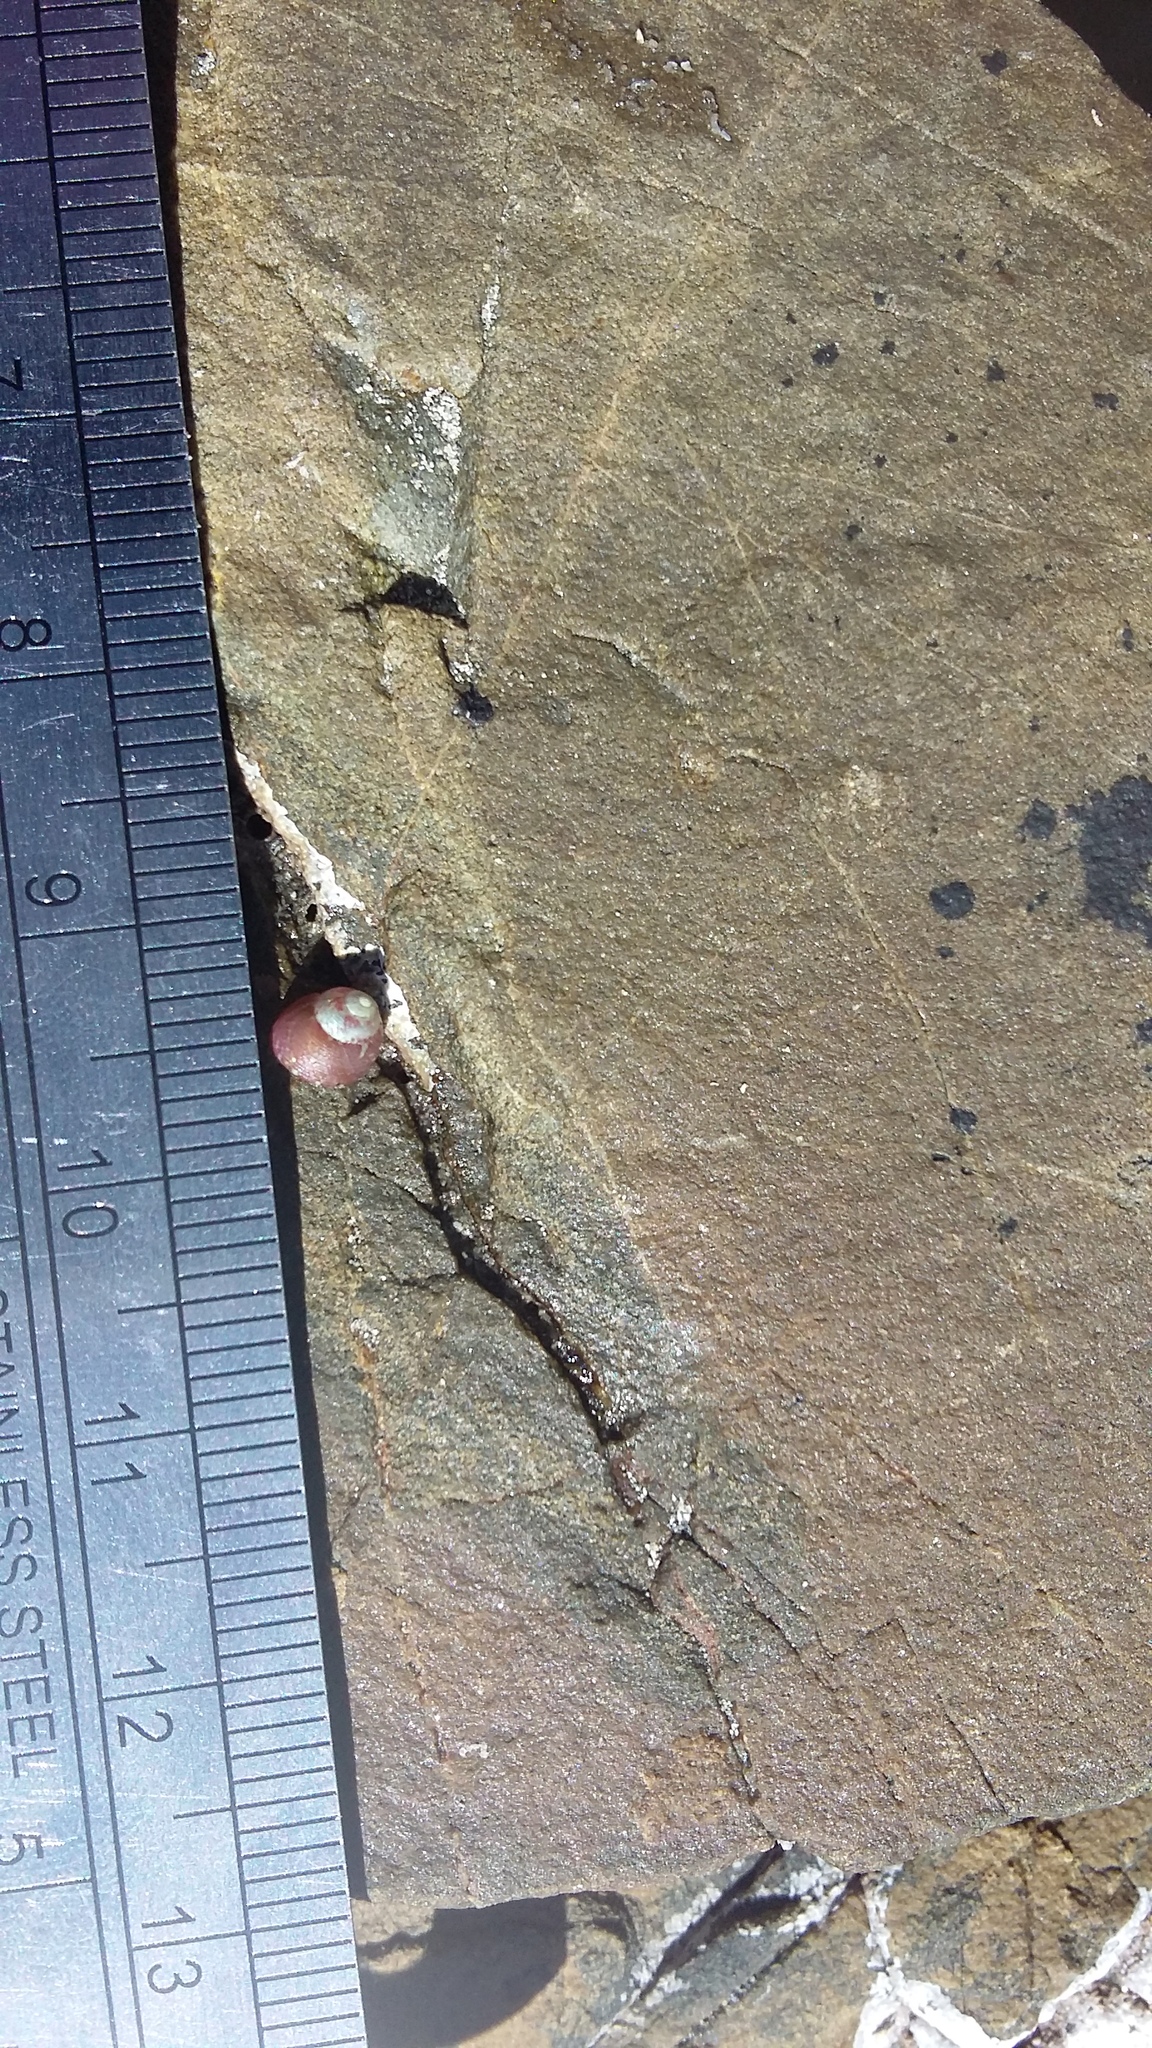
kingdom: Animalia
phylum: Mollusca
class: Gastropoda
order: Trochida
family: Trochidae
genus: Micrelenchus
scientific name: Micrelenchus tessellatus
